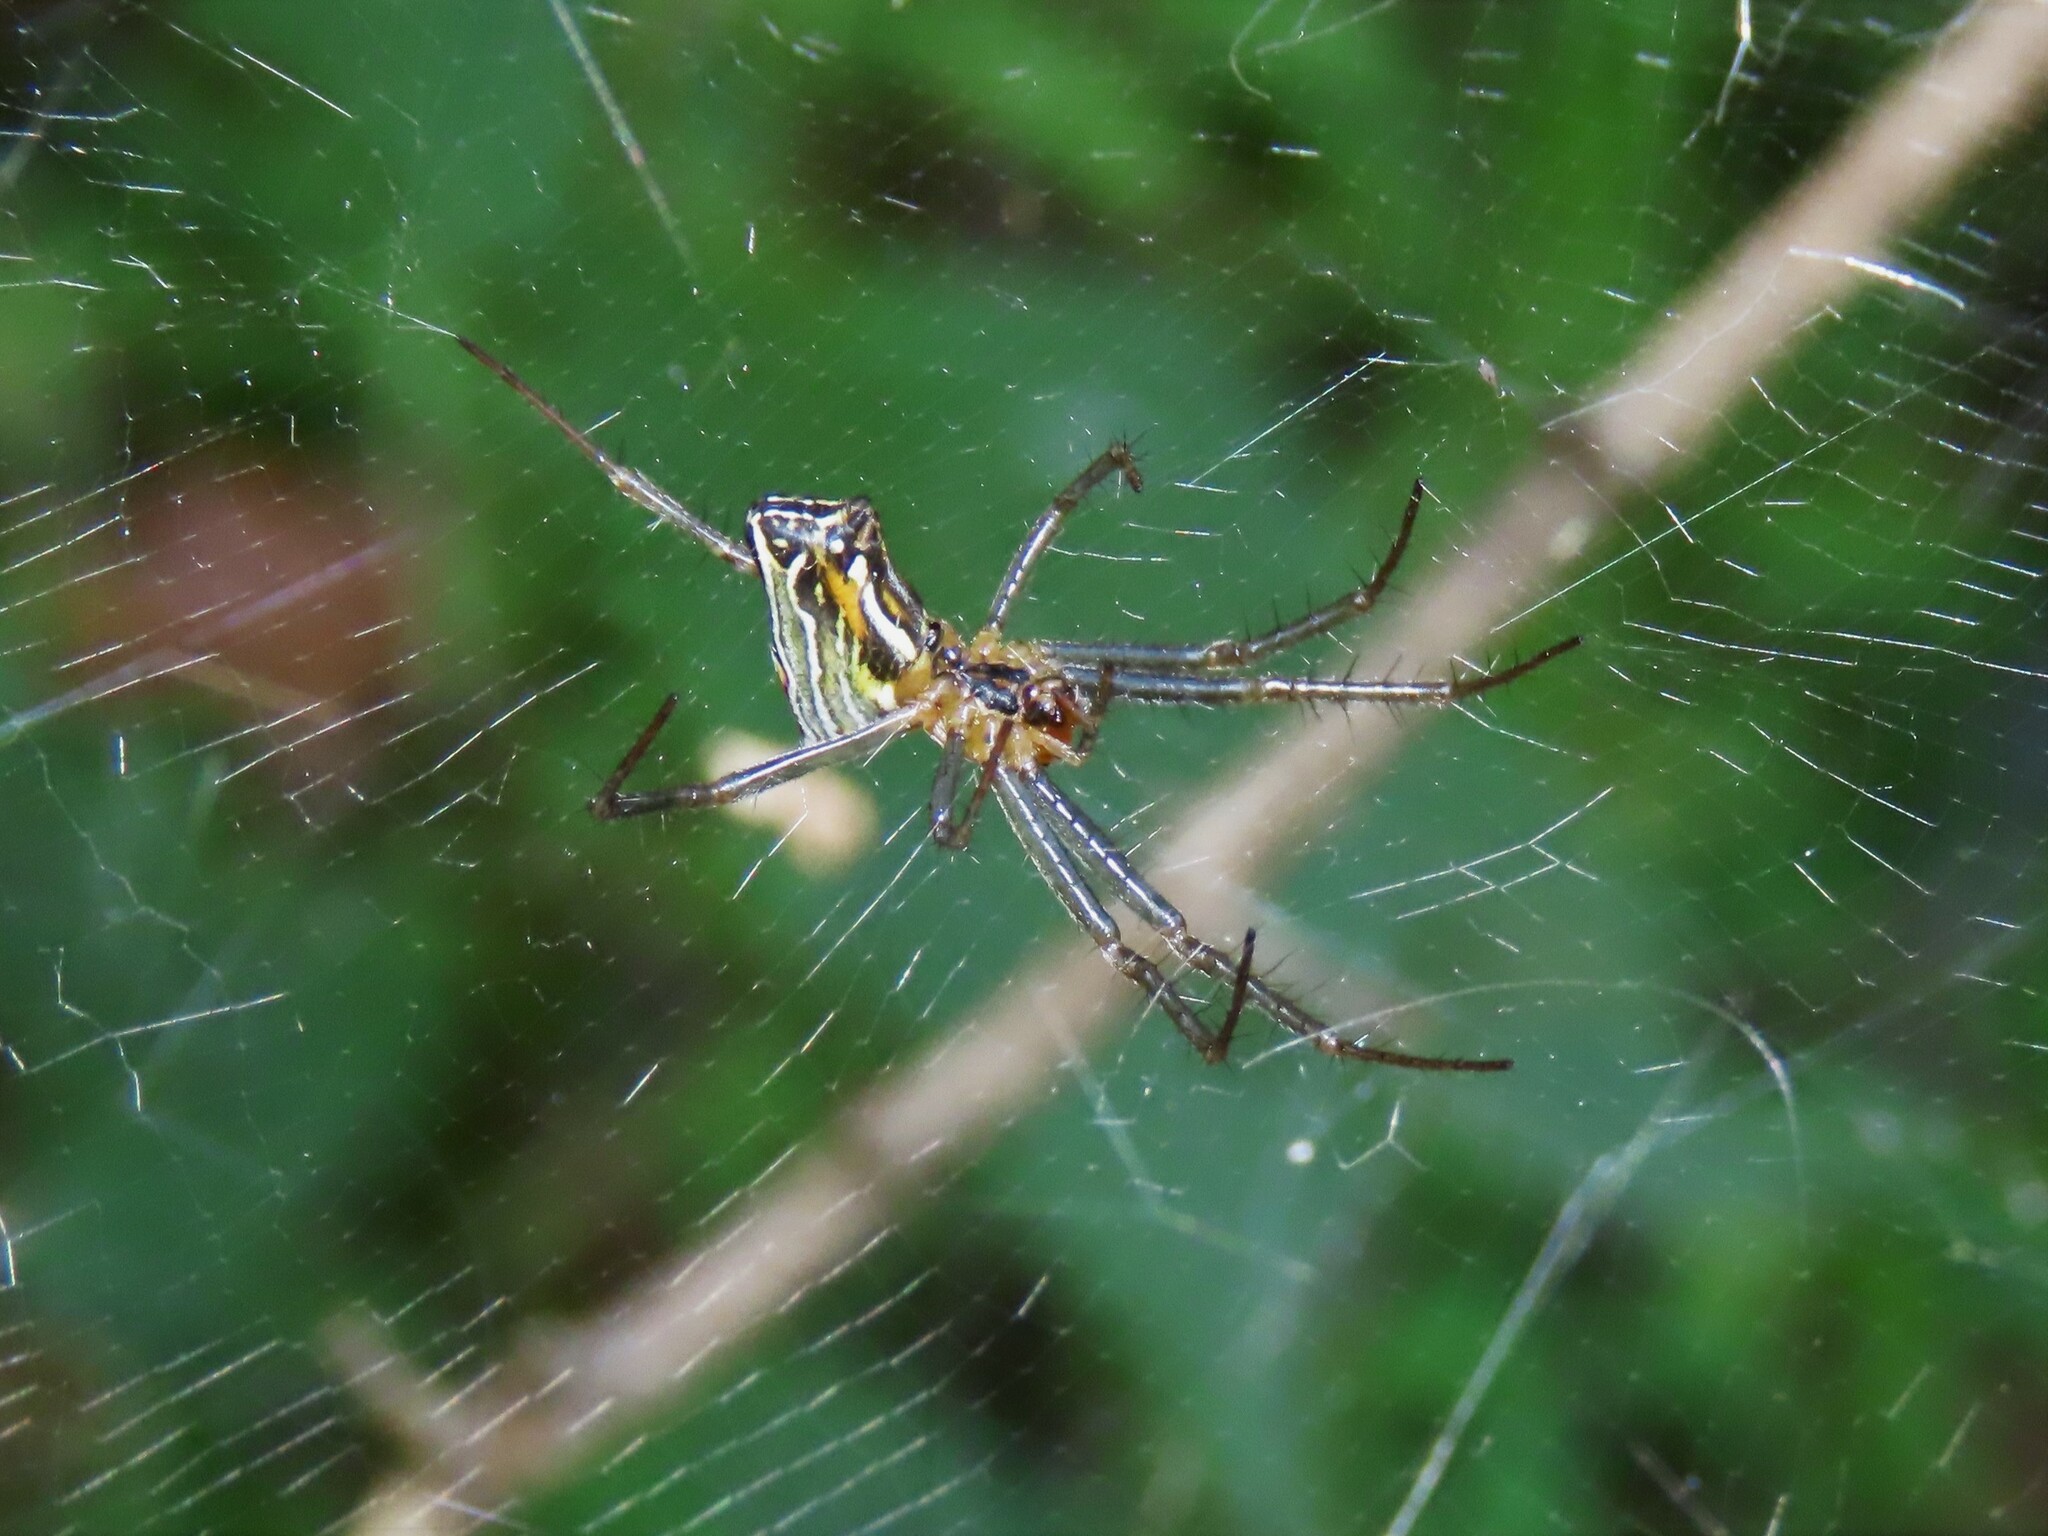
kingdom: Animalia
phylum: Arthropoda
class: Arachnida
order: Araneae
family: Araneidae
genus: Mecynogea
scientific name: Mecynogea lemniscata
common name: Orb weavers
